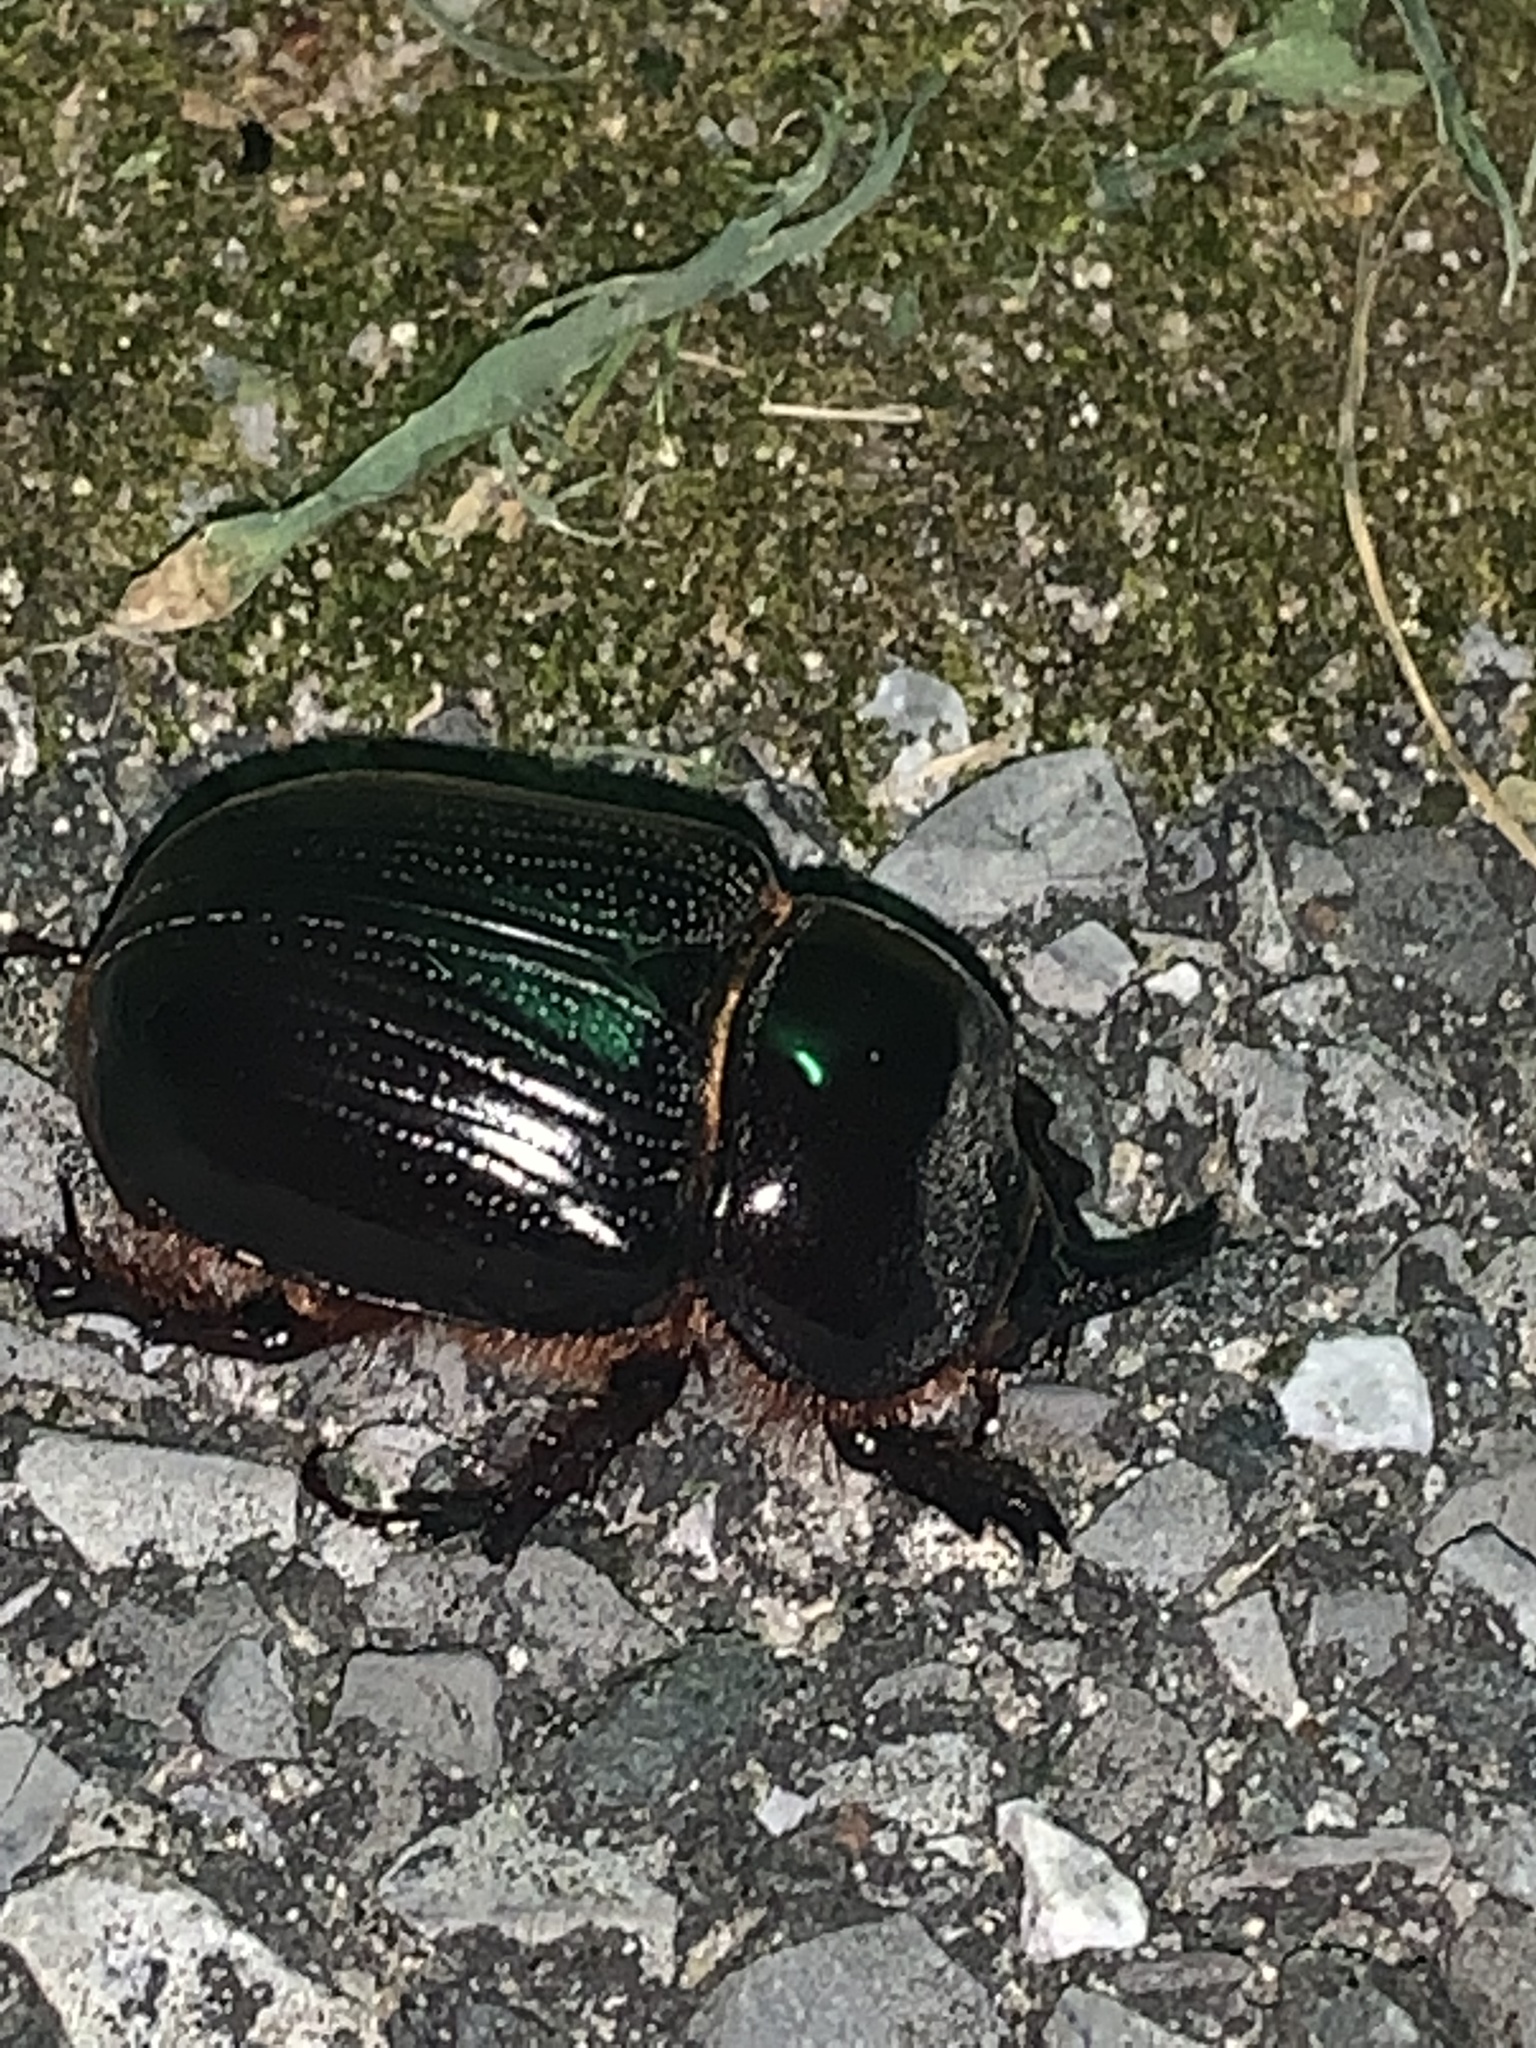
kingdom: Animalia
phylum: Arthropoda
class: Insecta
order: Coleoptera
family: Scarabaeidae
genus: Xyloryctes
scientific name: Xyloryctes jamaicensis
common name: Eastern rhinoceros beetle
